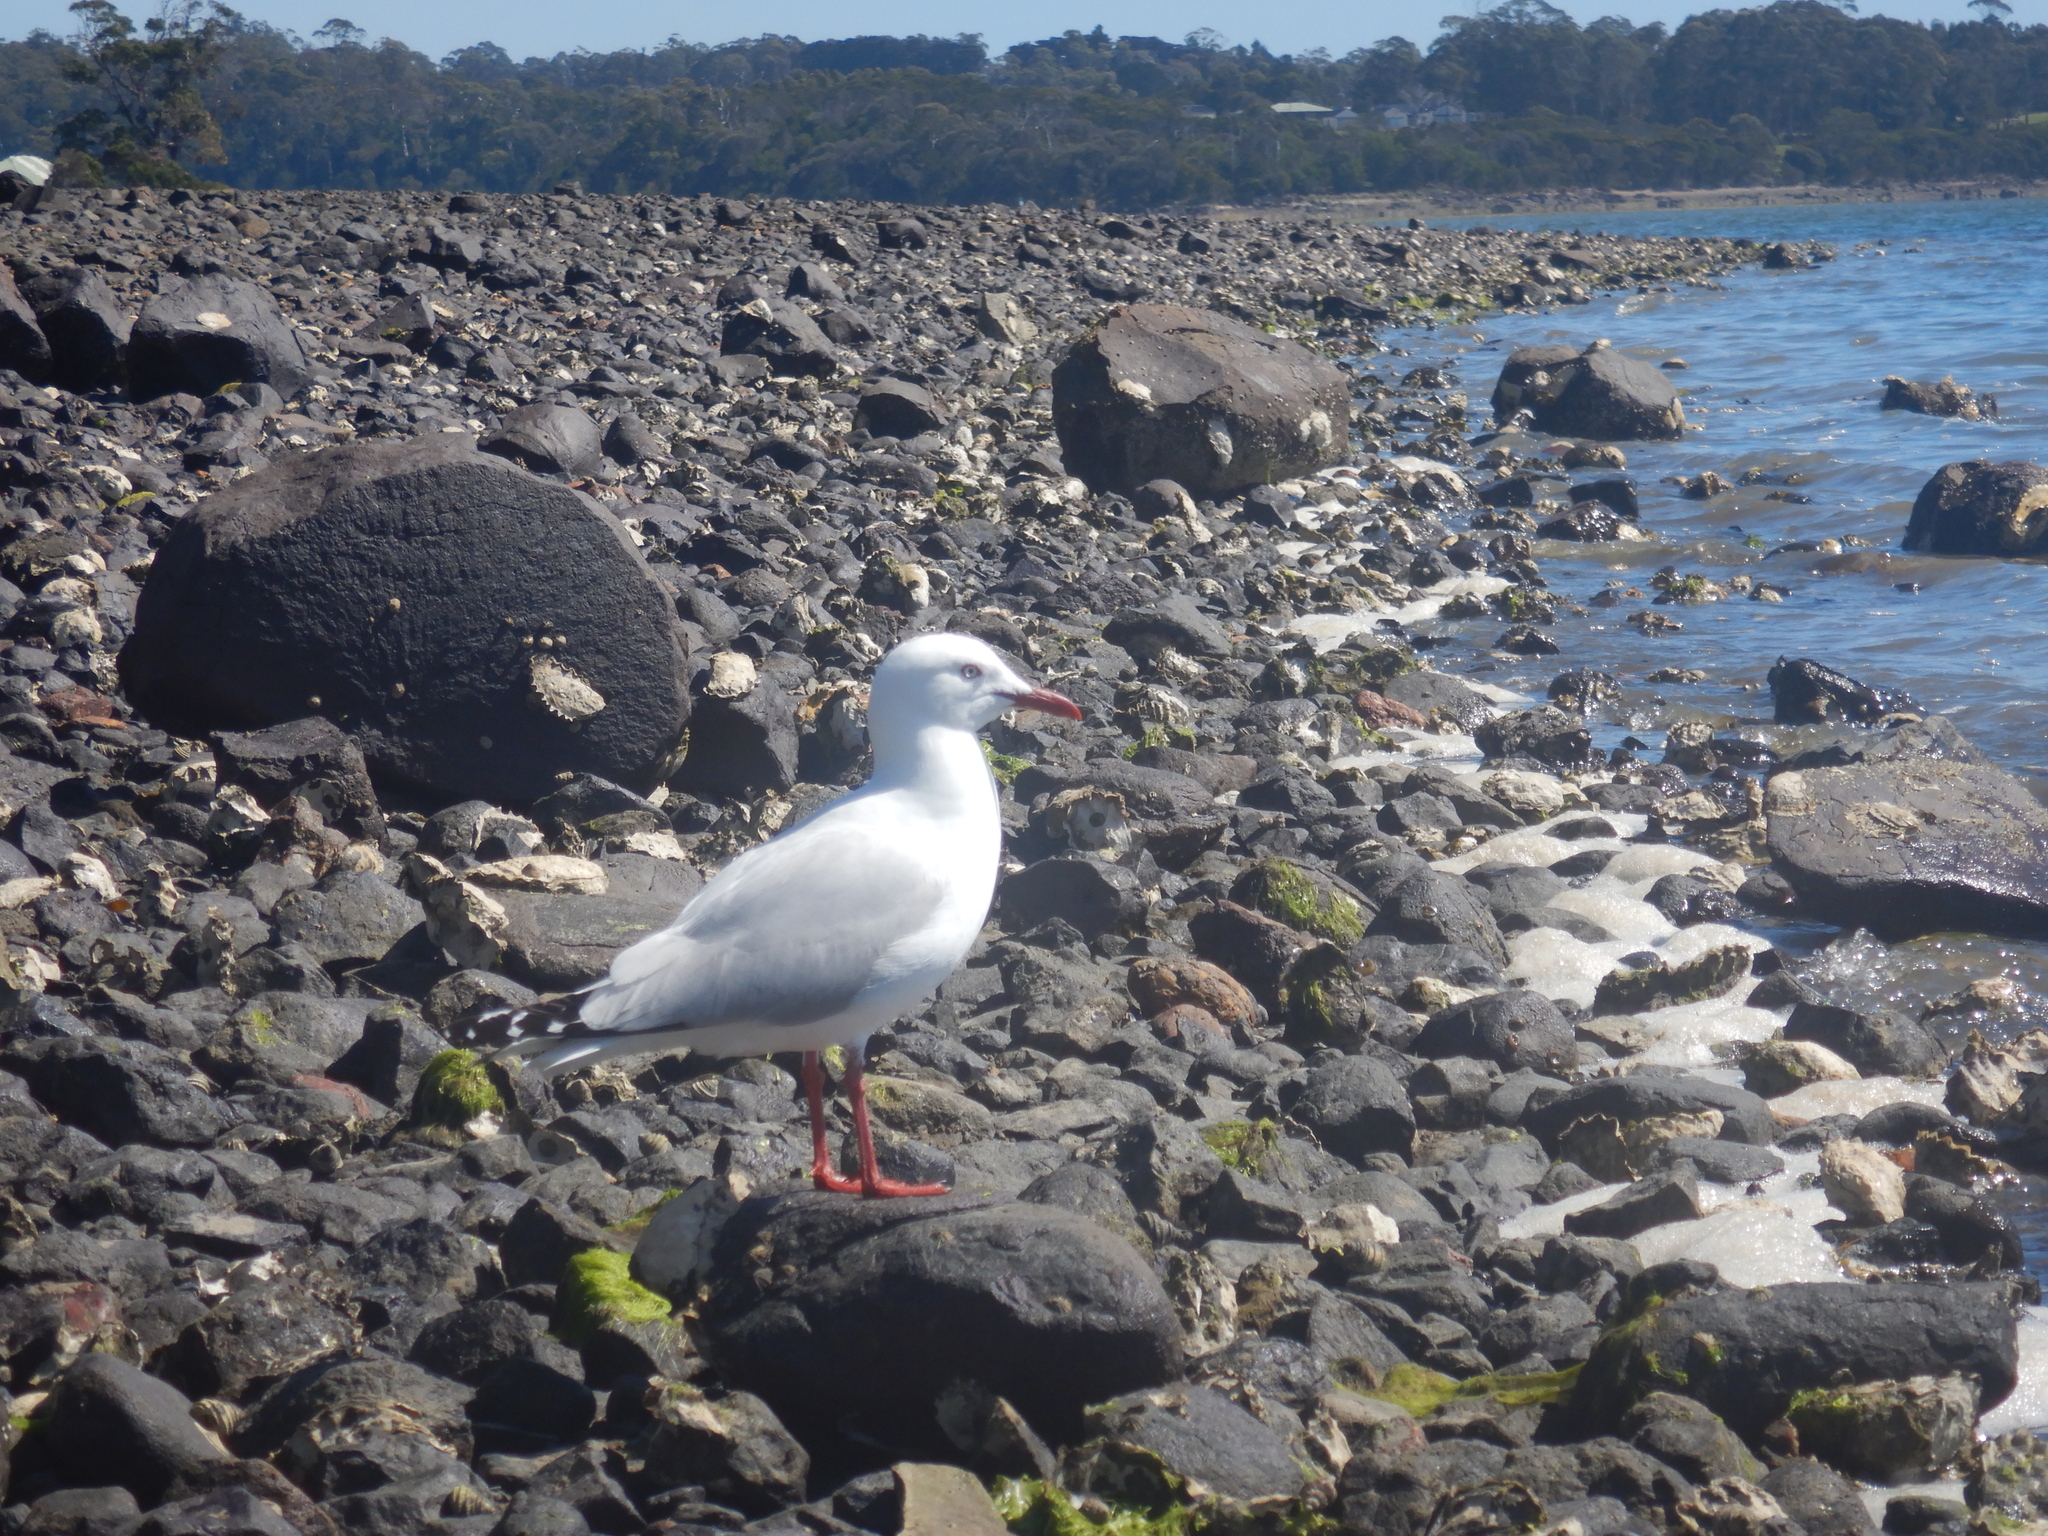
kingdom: Animalia
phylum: Chordata
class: Aves
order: Charadriiformes
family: Laridae
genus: Chroicocephalus
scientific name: Chroicocephalus novaehollandiae
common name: Silver gull
